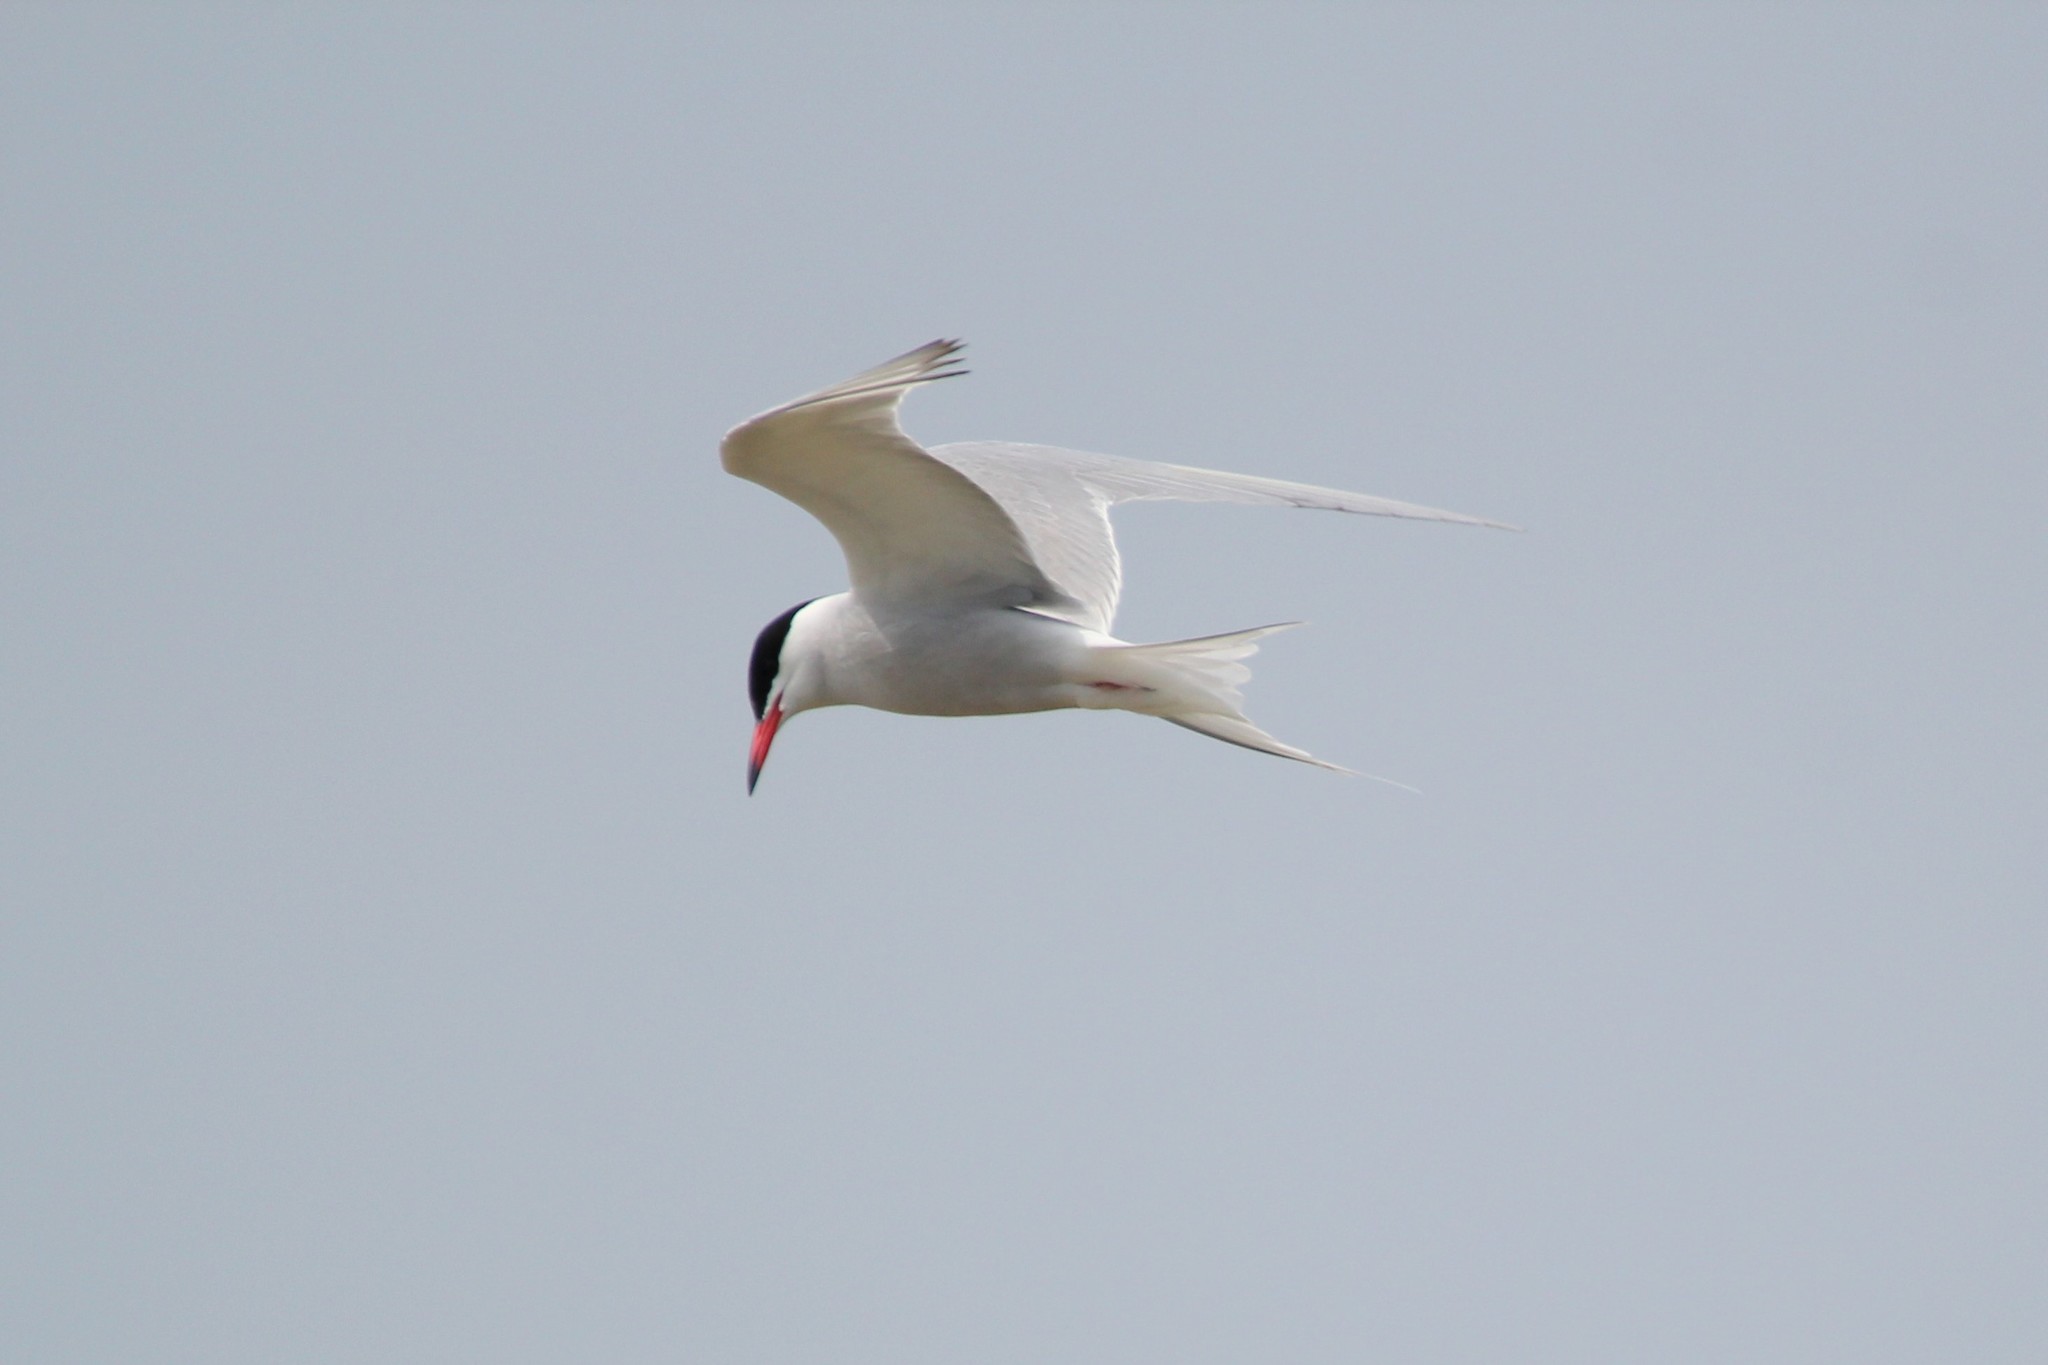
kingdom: Animalia
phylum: Chordata
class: Aves
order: Charadriiformes
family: Laridae
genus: Sterna
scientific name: Sterna hirundo
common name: Common tern
